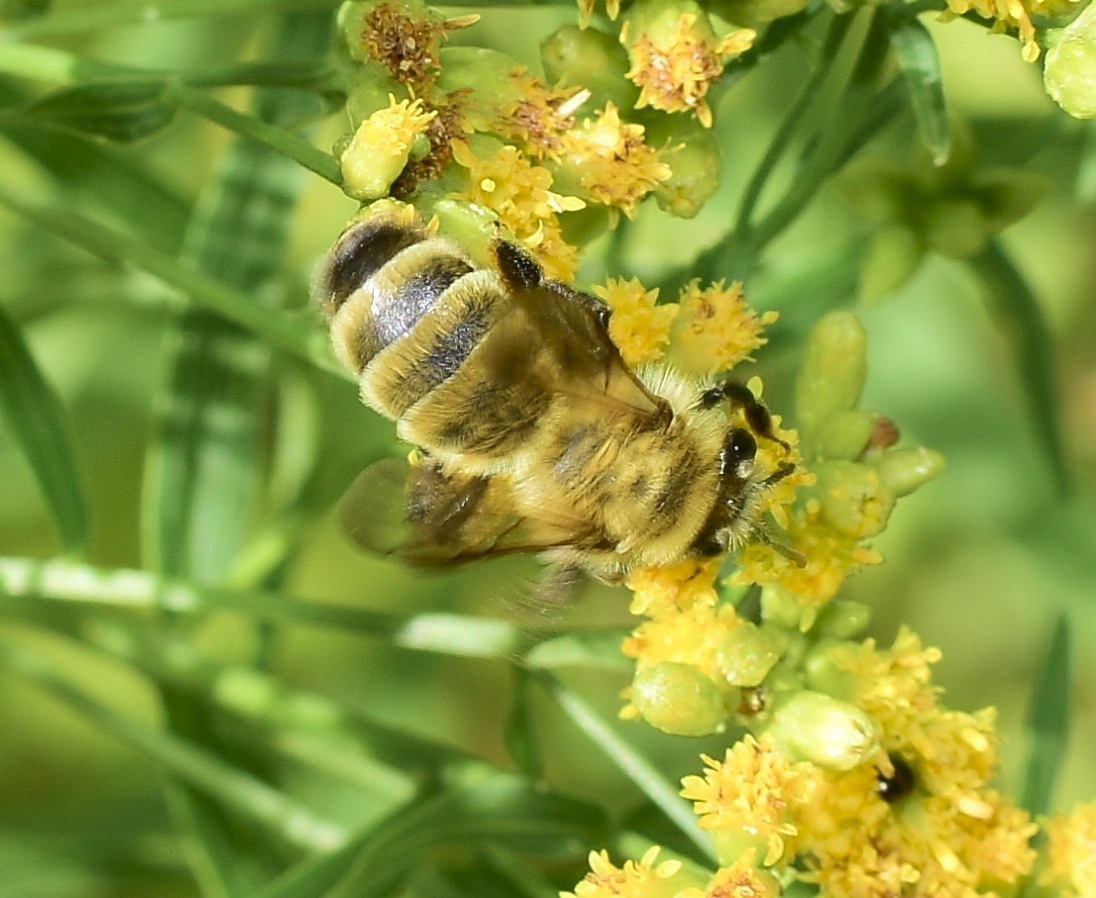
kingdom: Animalia
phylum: Arthropoda
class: Insecta
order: Hymenoptera
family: Andrenidae
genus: Andrena
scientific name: Andrena hirticincta
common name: Hairy-banded mining bee
